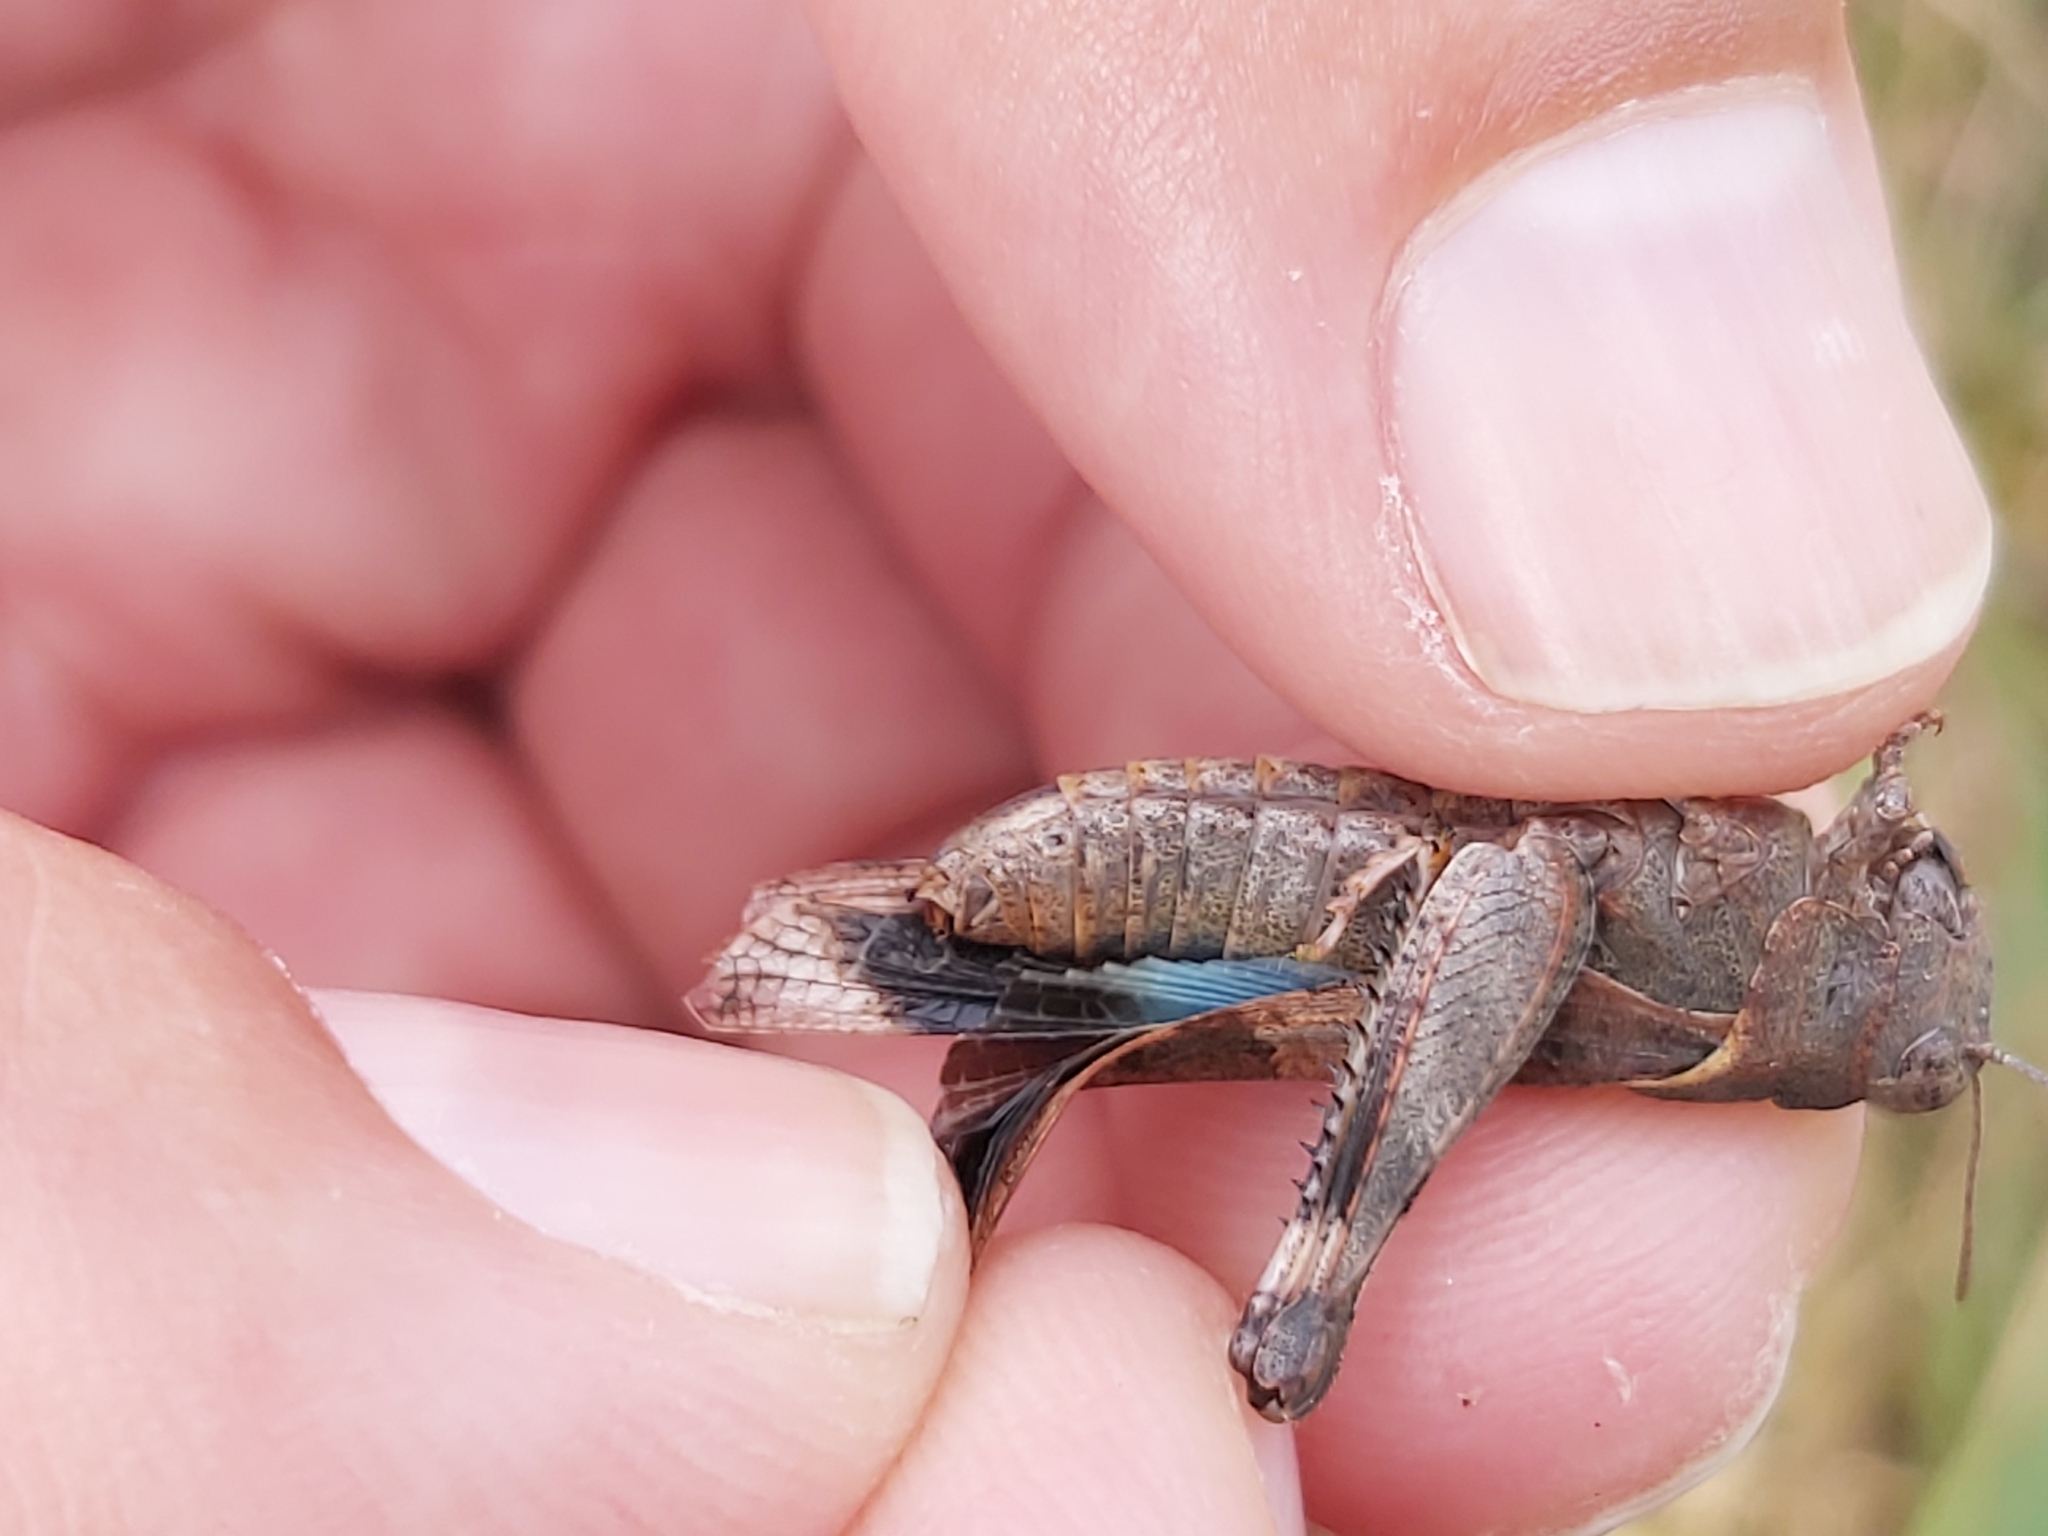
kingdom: Animalia
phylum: Arthropoda
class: Insecta
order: Orthoptera
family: Acrididae
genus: Oedipoda
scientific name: Oedipoda caerulescens
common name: Blue-winged grasshopper
